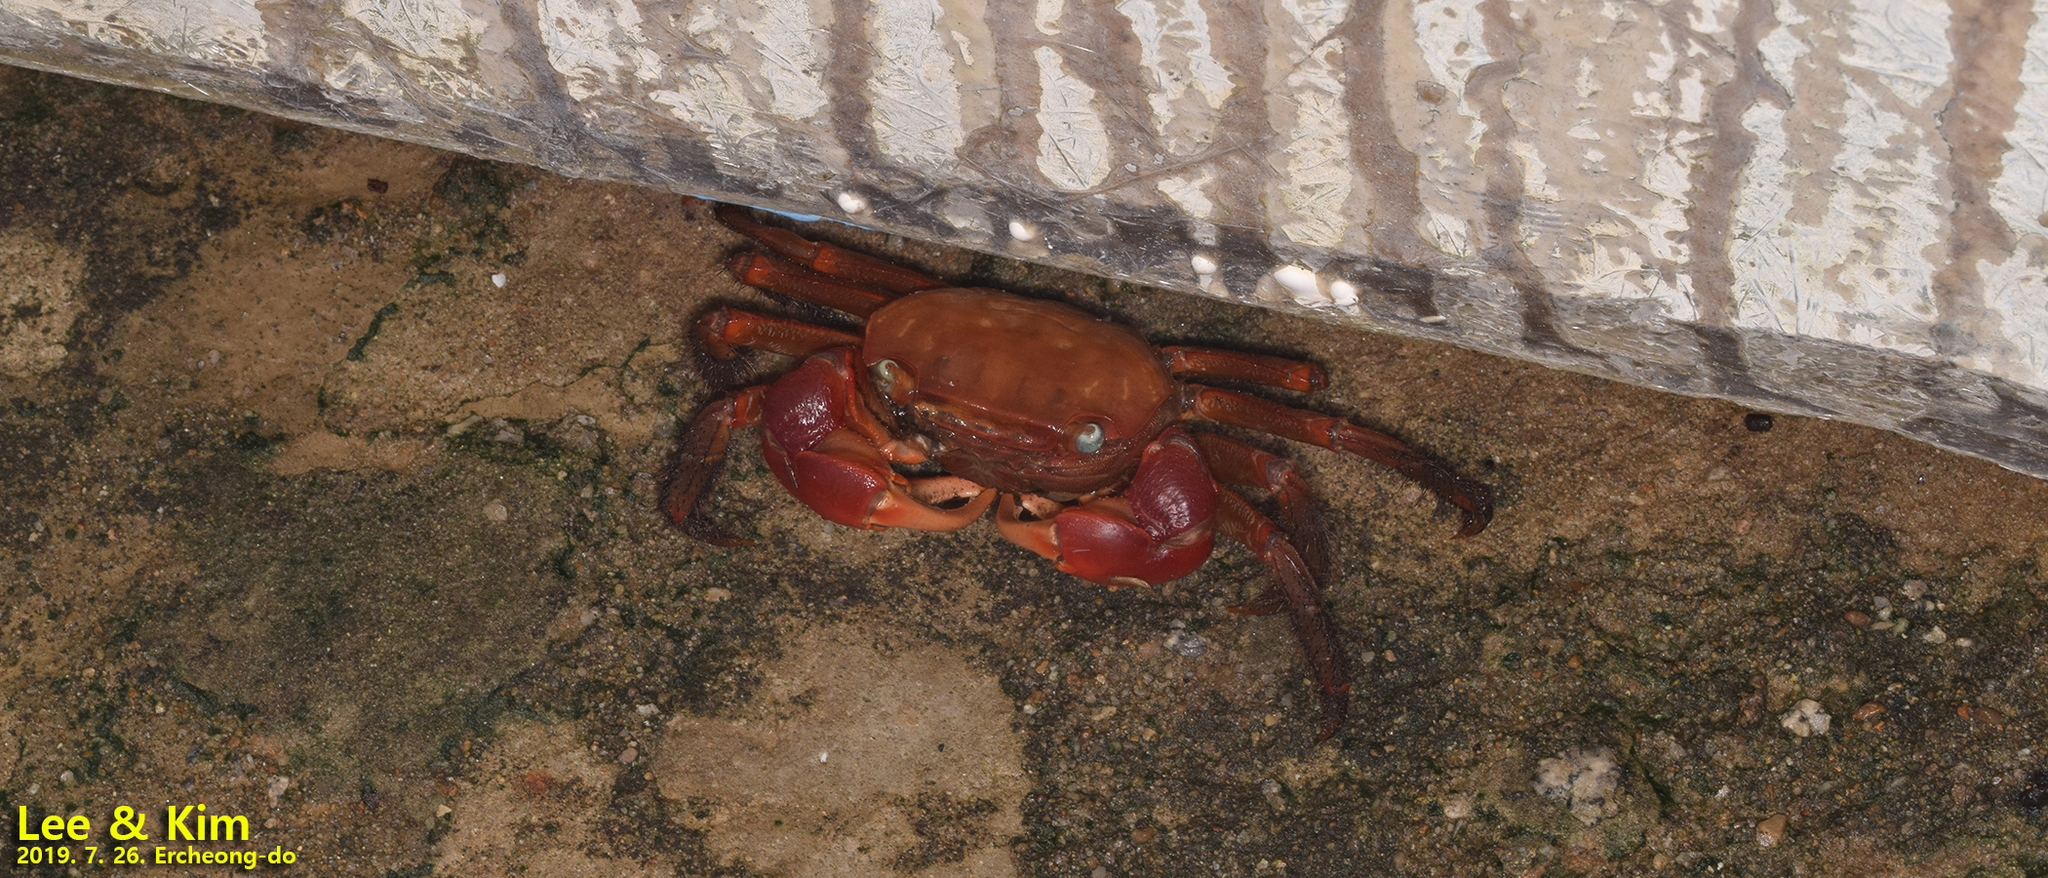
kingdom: Animalia
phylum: Arthropoda
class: Malacostraca
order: Decapoda
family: Sesarmidae
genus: Chiromantes
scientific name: Chiromantes haematocheir
